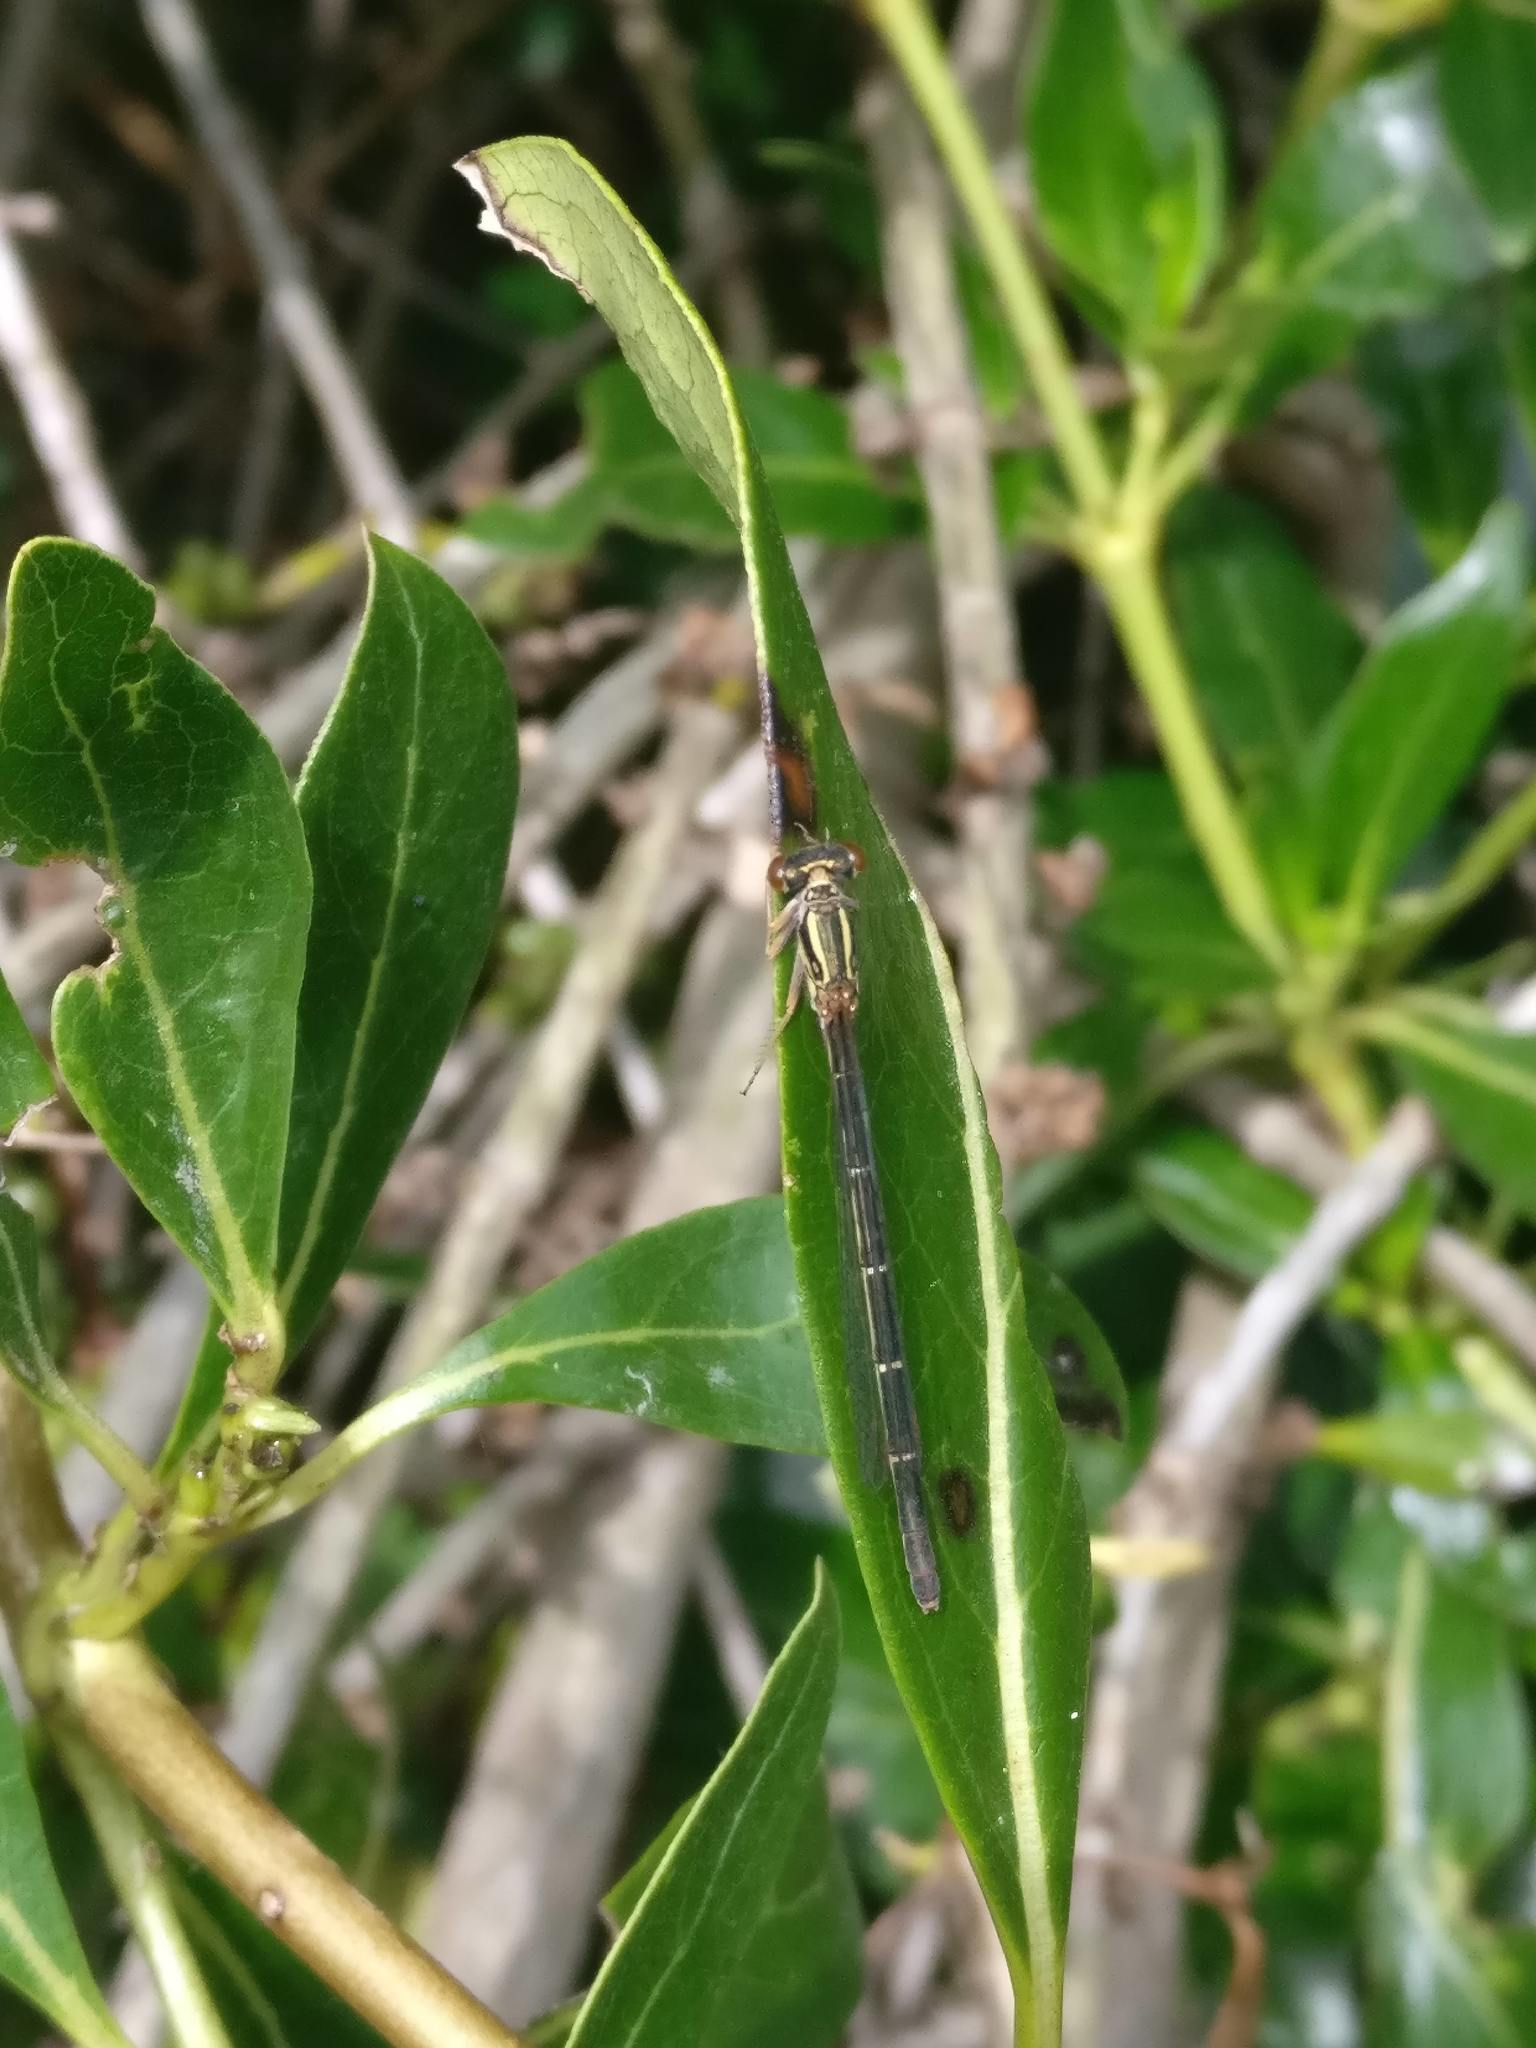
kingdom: Animalia
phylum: Arthropoda
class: Insecta
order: Odonata
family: Coenagrionidae
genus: Xanthocnemis
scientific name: Xanthocnemis zealandica
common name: Common redcoat damselfly
